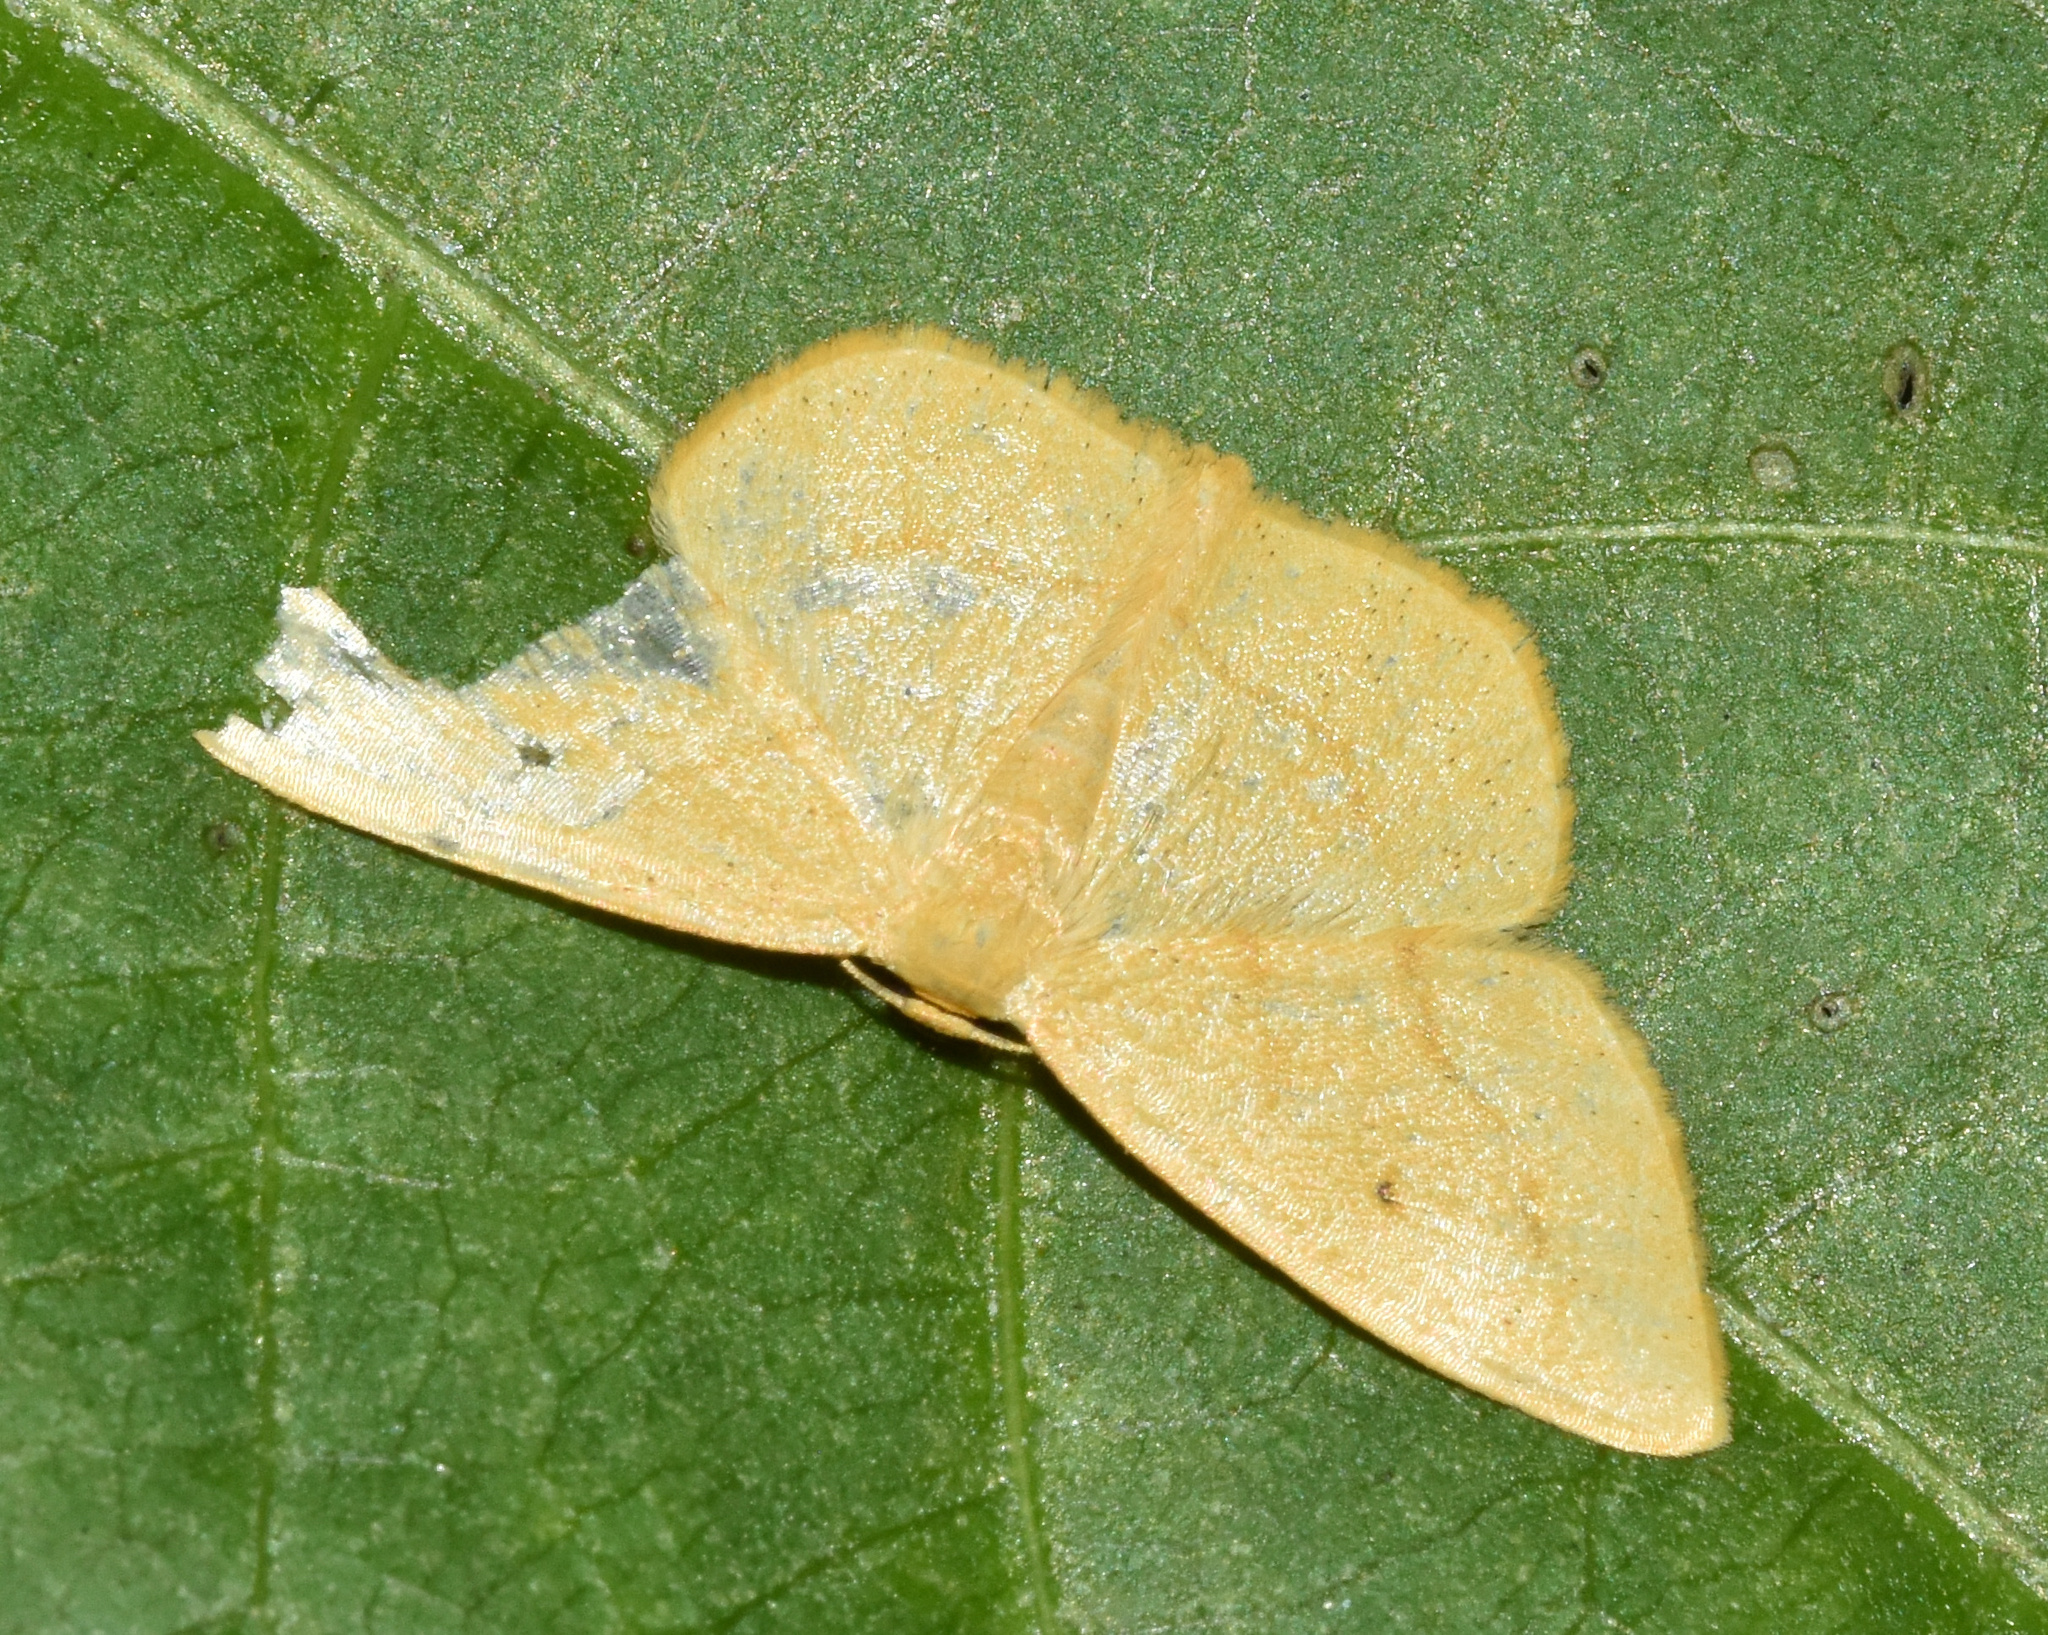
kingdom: Animalia
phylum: Arthropoda
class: Insecta
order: Lepidoptera
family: Geometridae
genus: Scopula
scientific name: Scopula straminea
